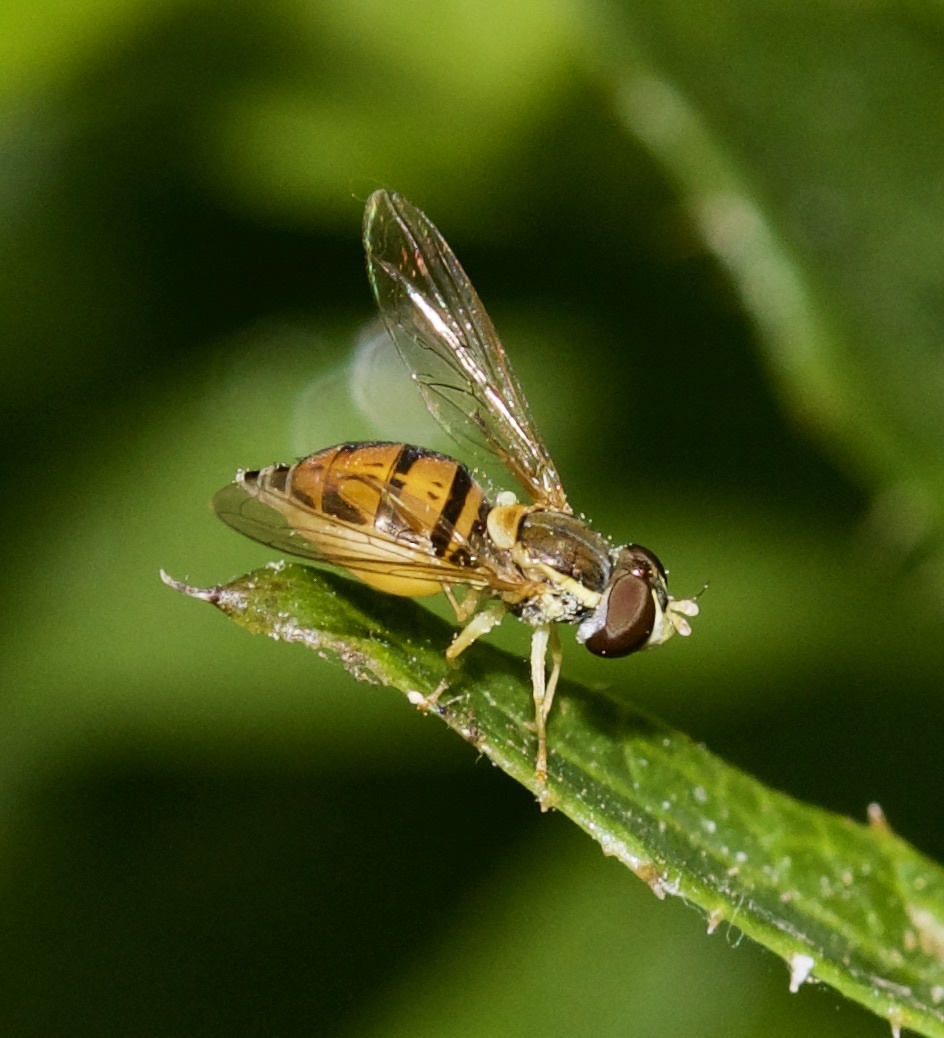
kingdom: Animalia
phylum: Arthropoda
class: Insecta
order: Diptera
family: Syrphidae
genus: Toxomerus
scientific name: Toxomerus marginatus
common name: Syrphid fly
